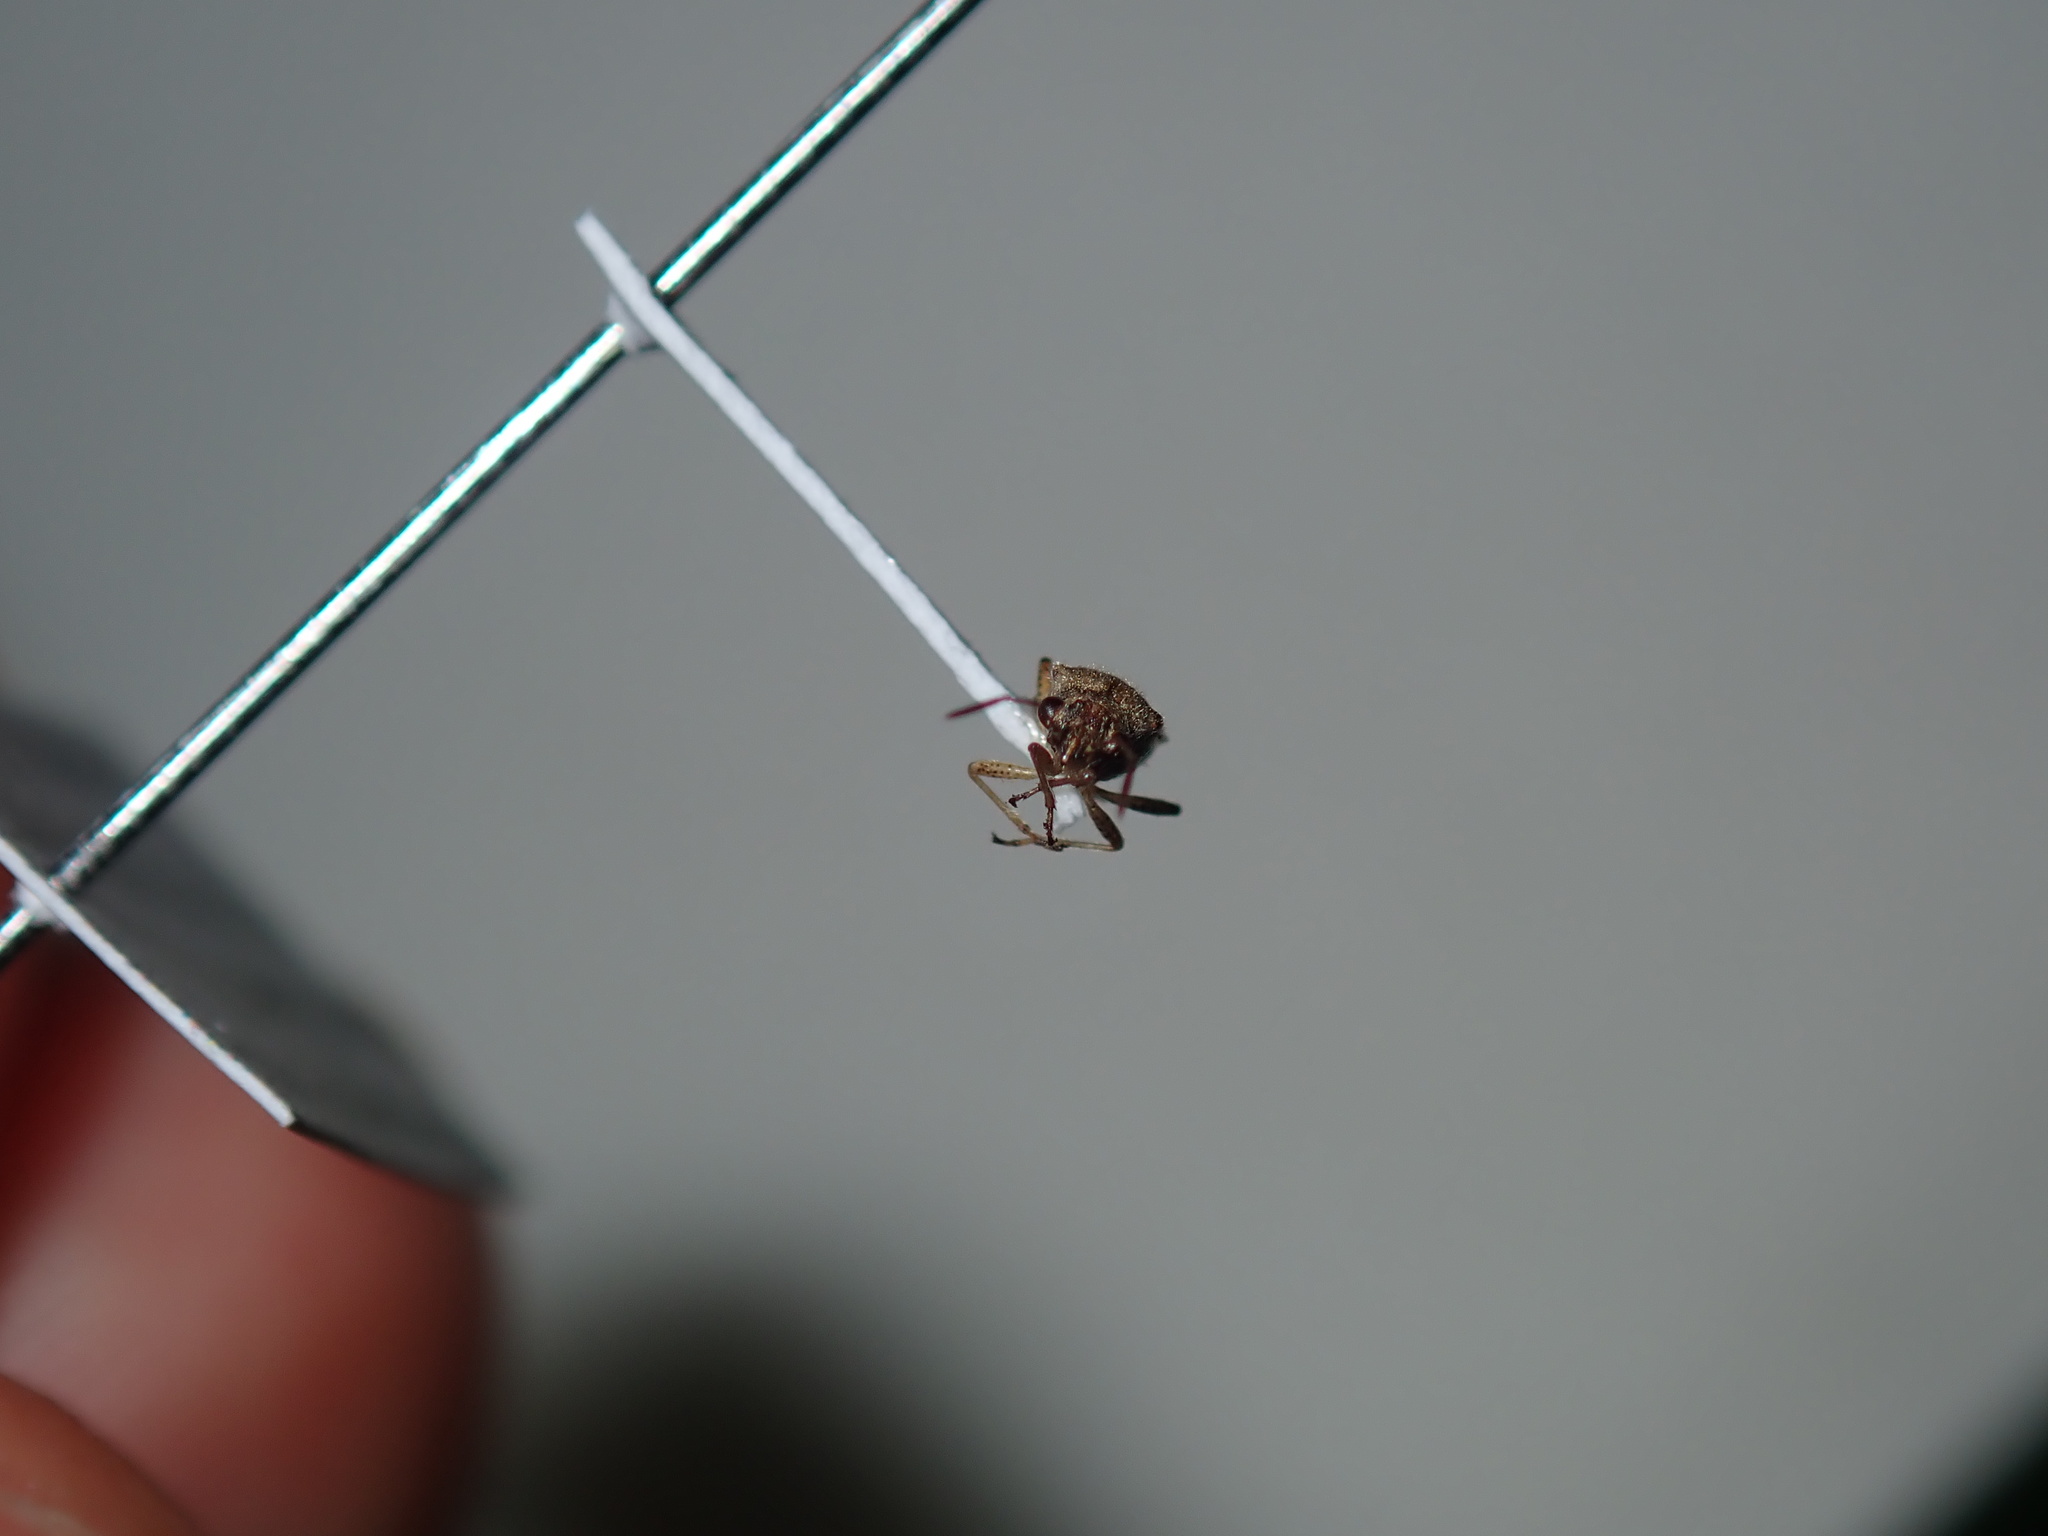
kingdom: Animalia
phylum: Arthropoda
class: Insecta
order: Hemiptera
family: Lygaeidae
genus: Nysius
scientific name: Nysius vinitor
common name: Lygaeid bug
